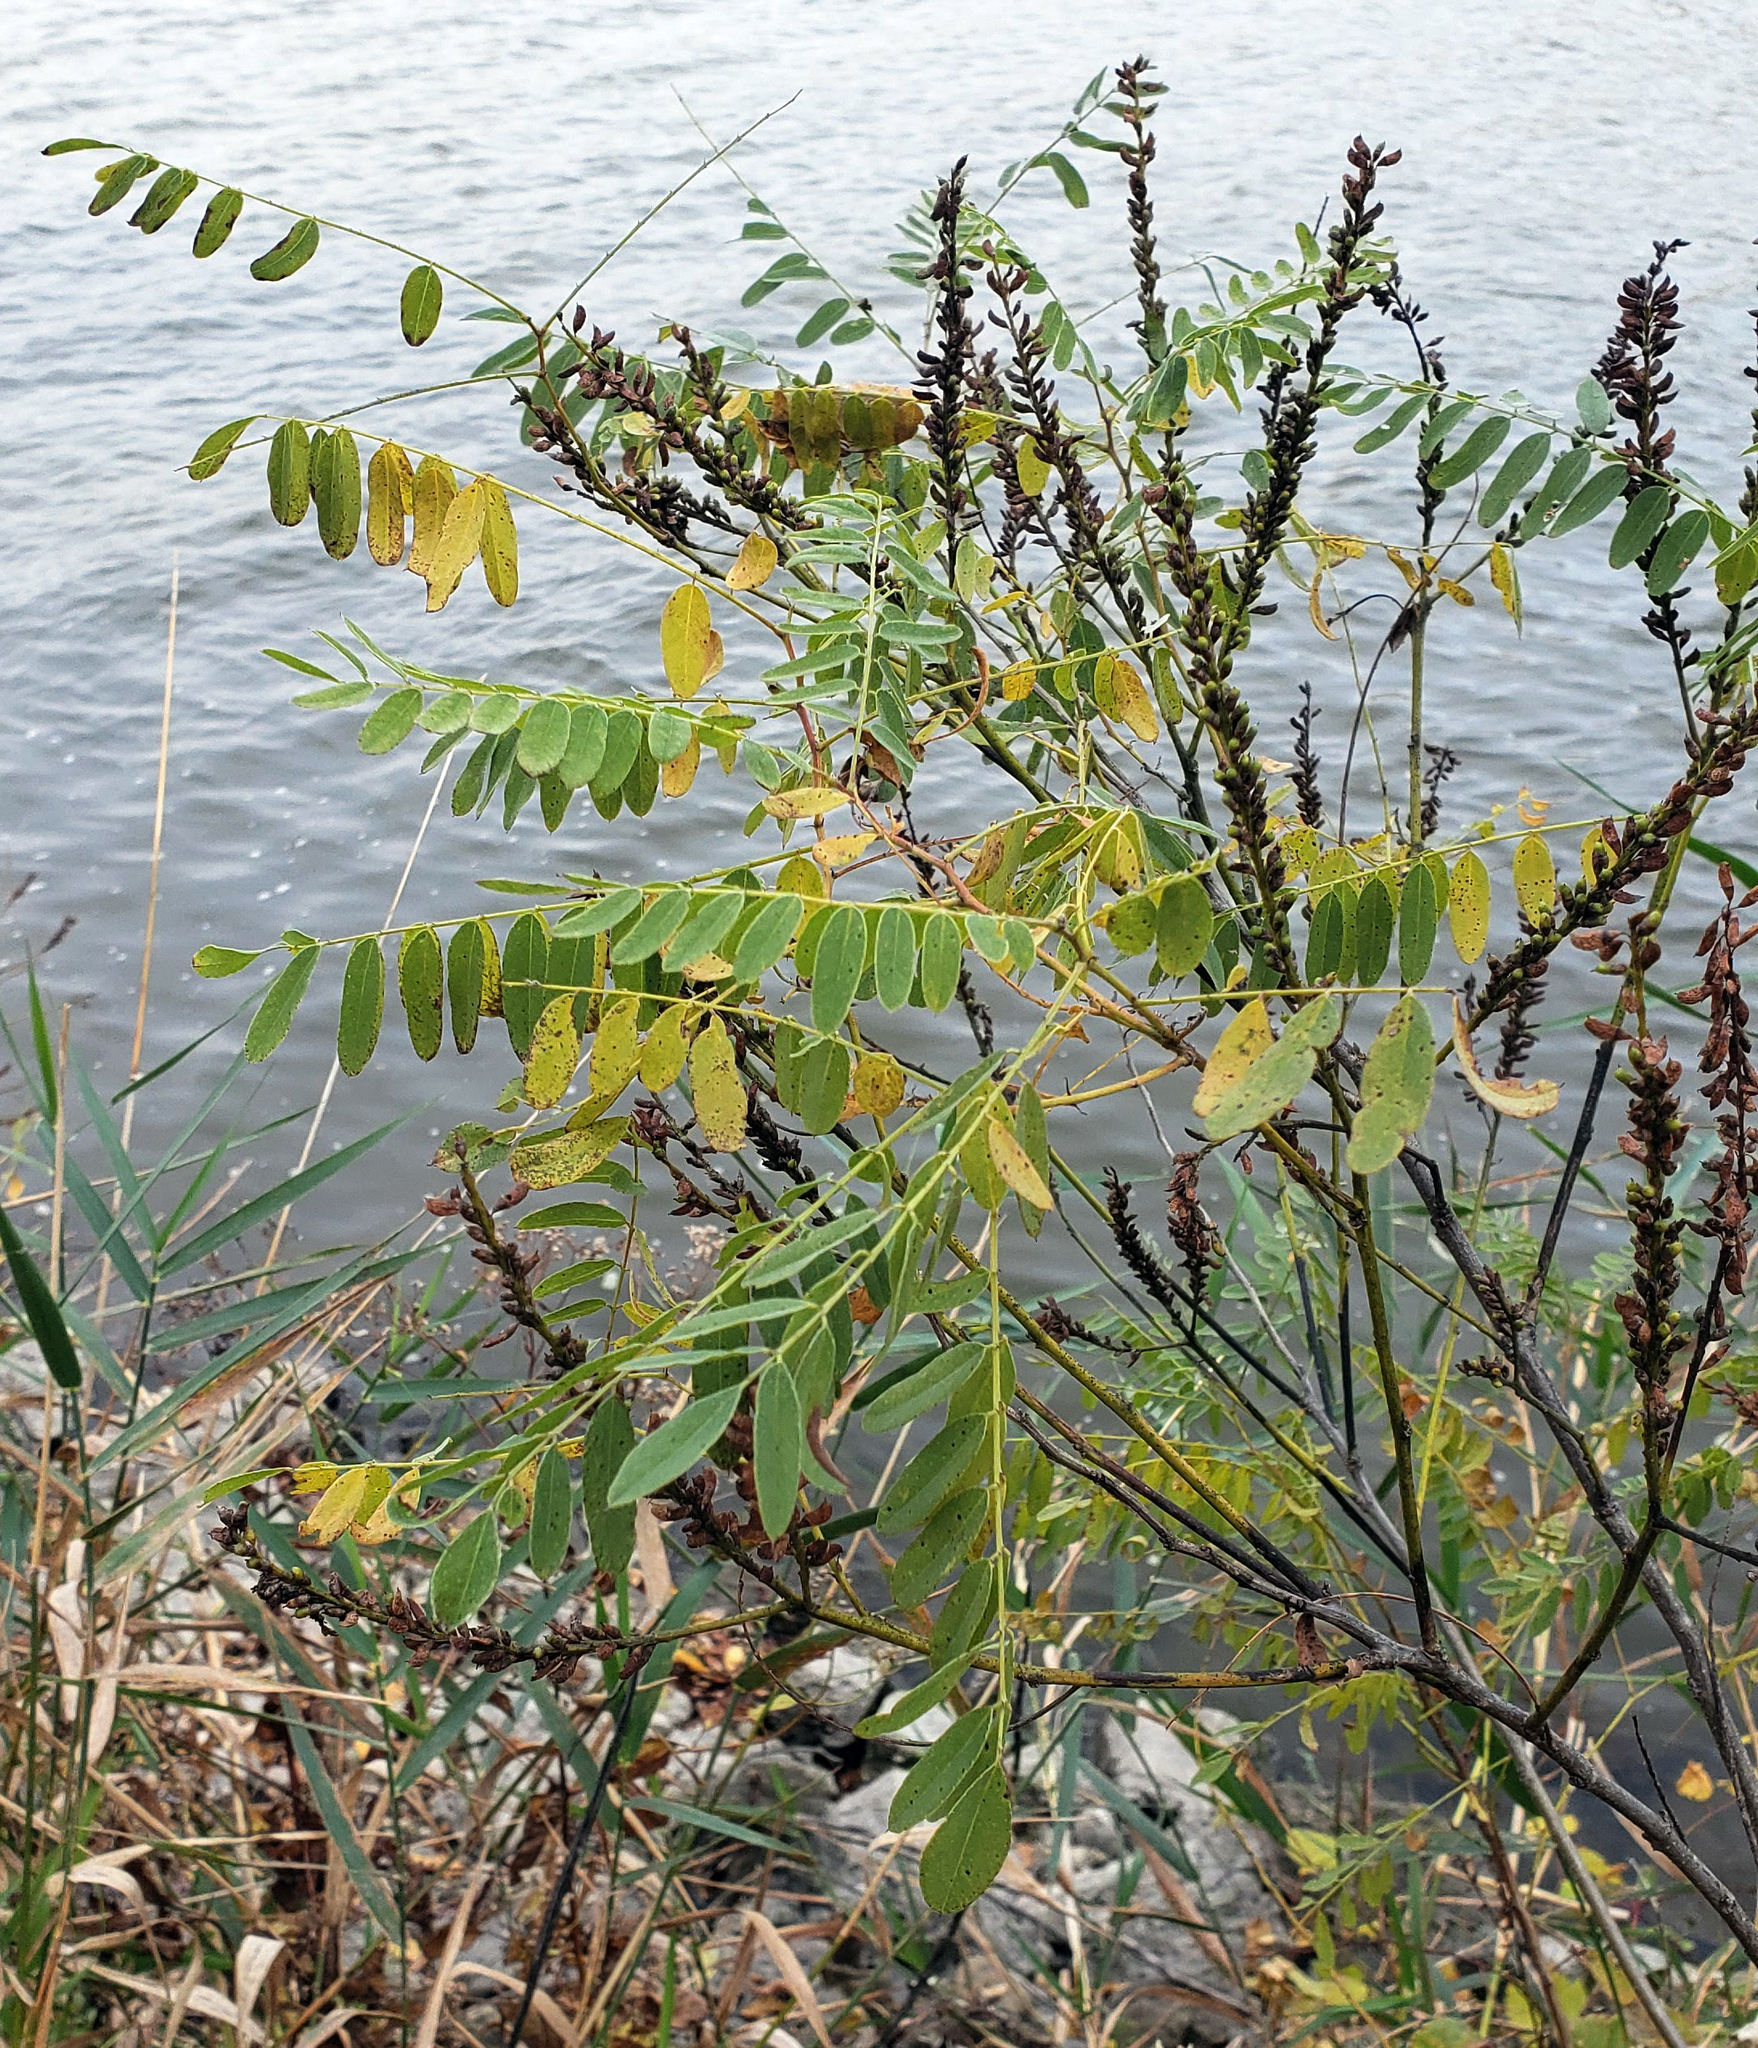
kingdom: Plantae
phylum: Tracheophyta
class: Magnoliopsida
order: Fabales
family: Fabaceae
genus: Amorpha
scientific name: Amorpha fruticosa
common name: False indigo
